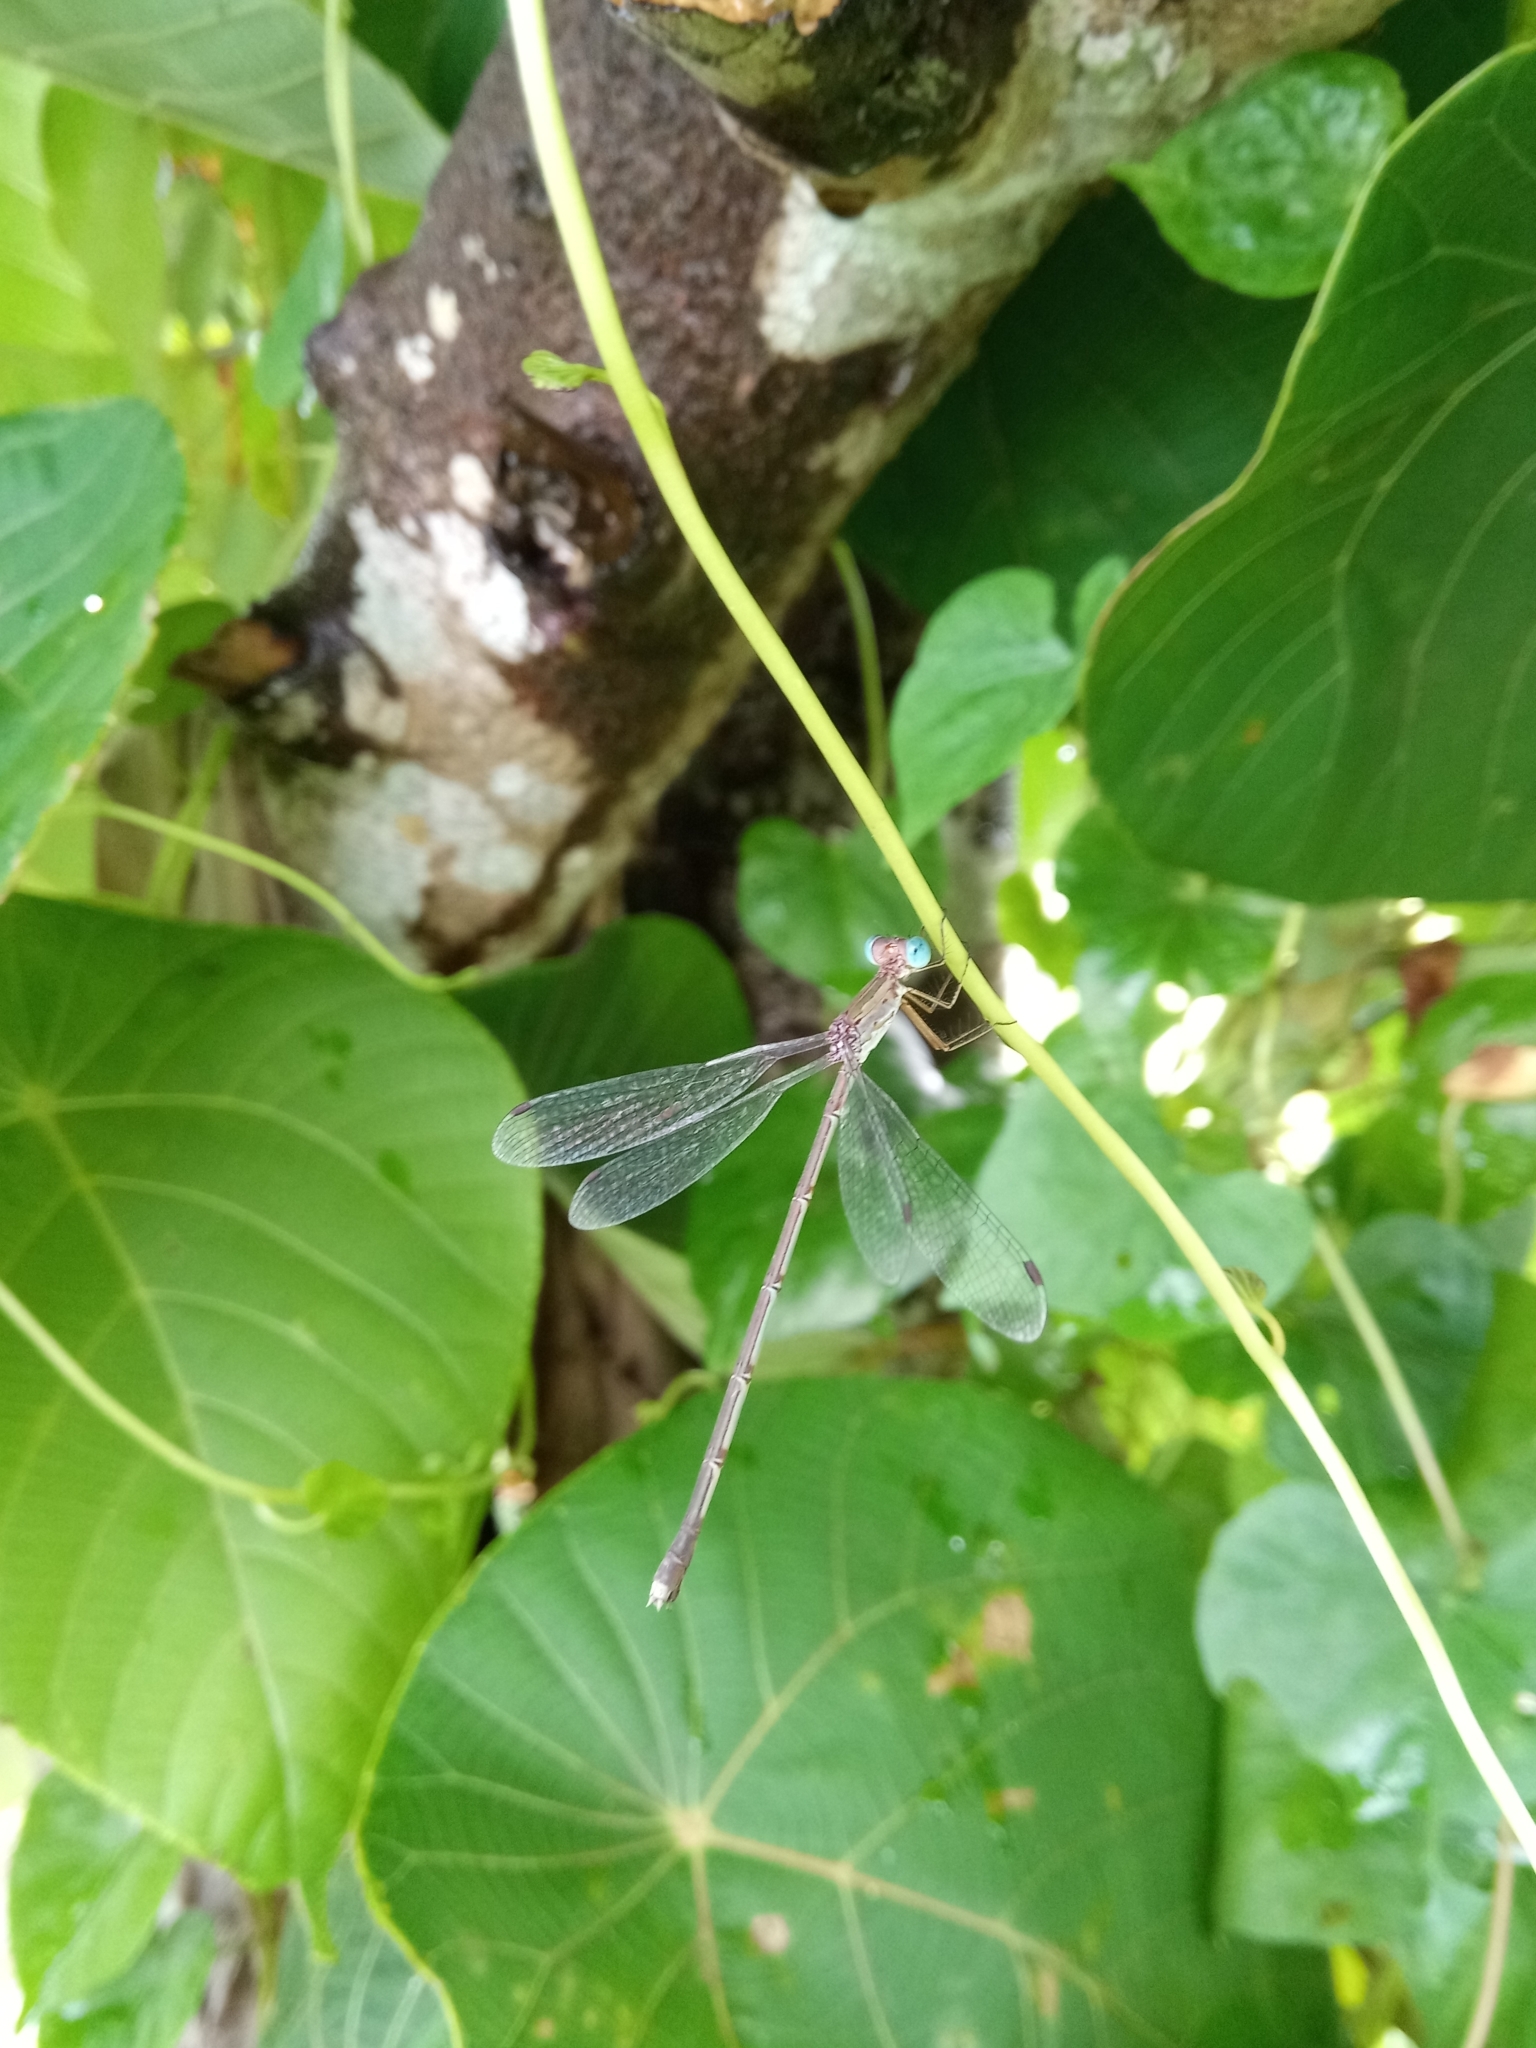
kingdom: Animalia
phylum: Arthropoda
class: Insecta
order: Odonata
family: Lestidae
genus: Lestes
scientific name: Lestes elatus
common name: Emerald spreadwing
